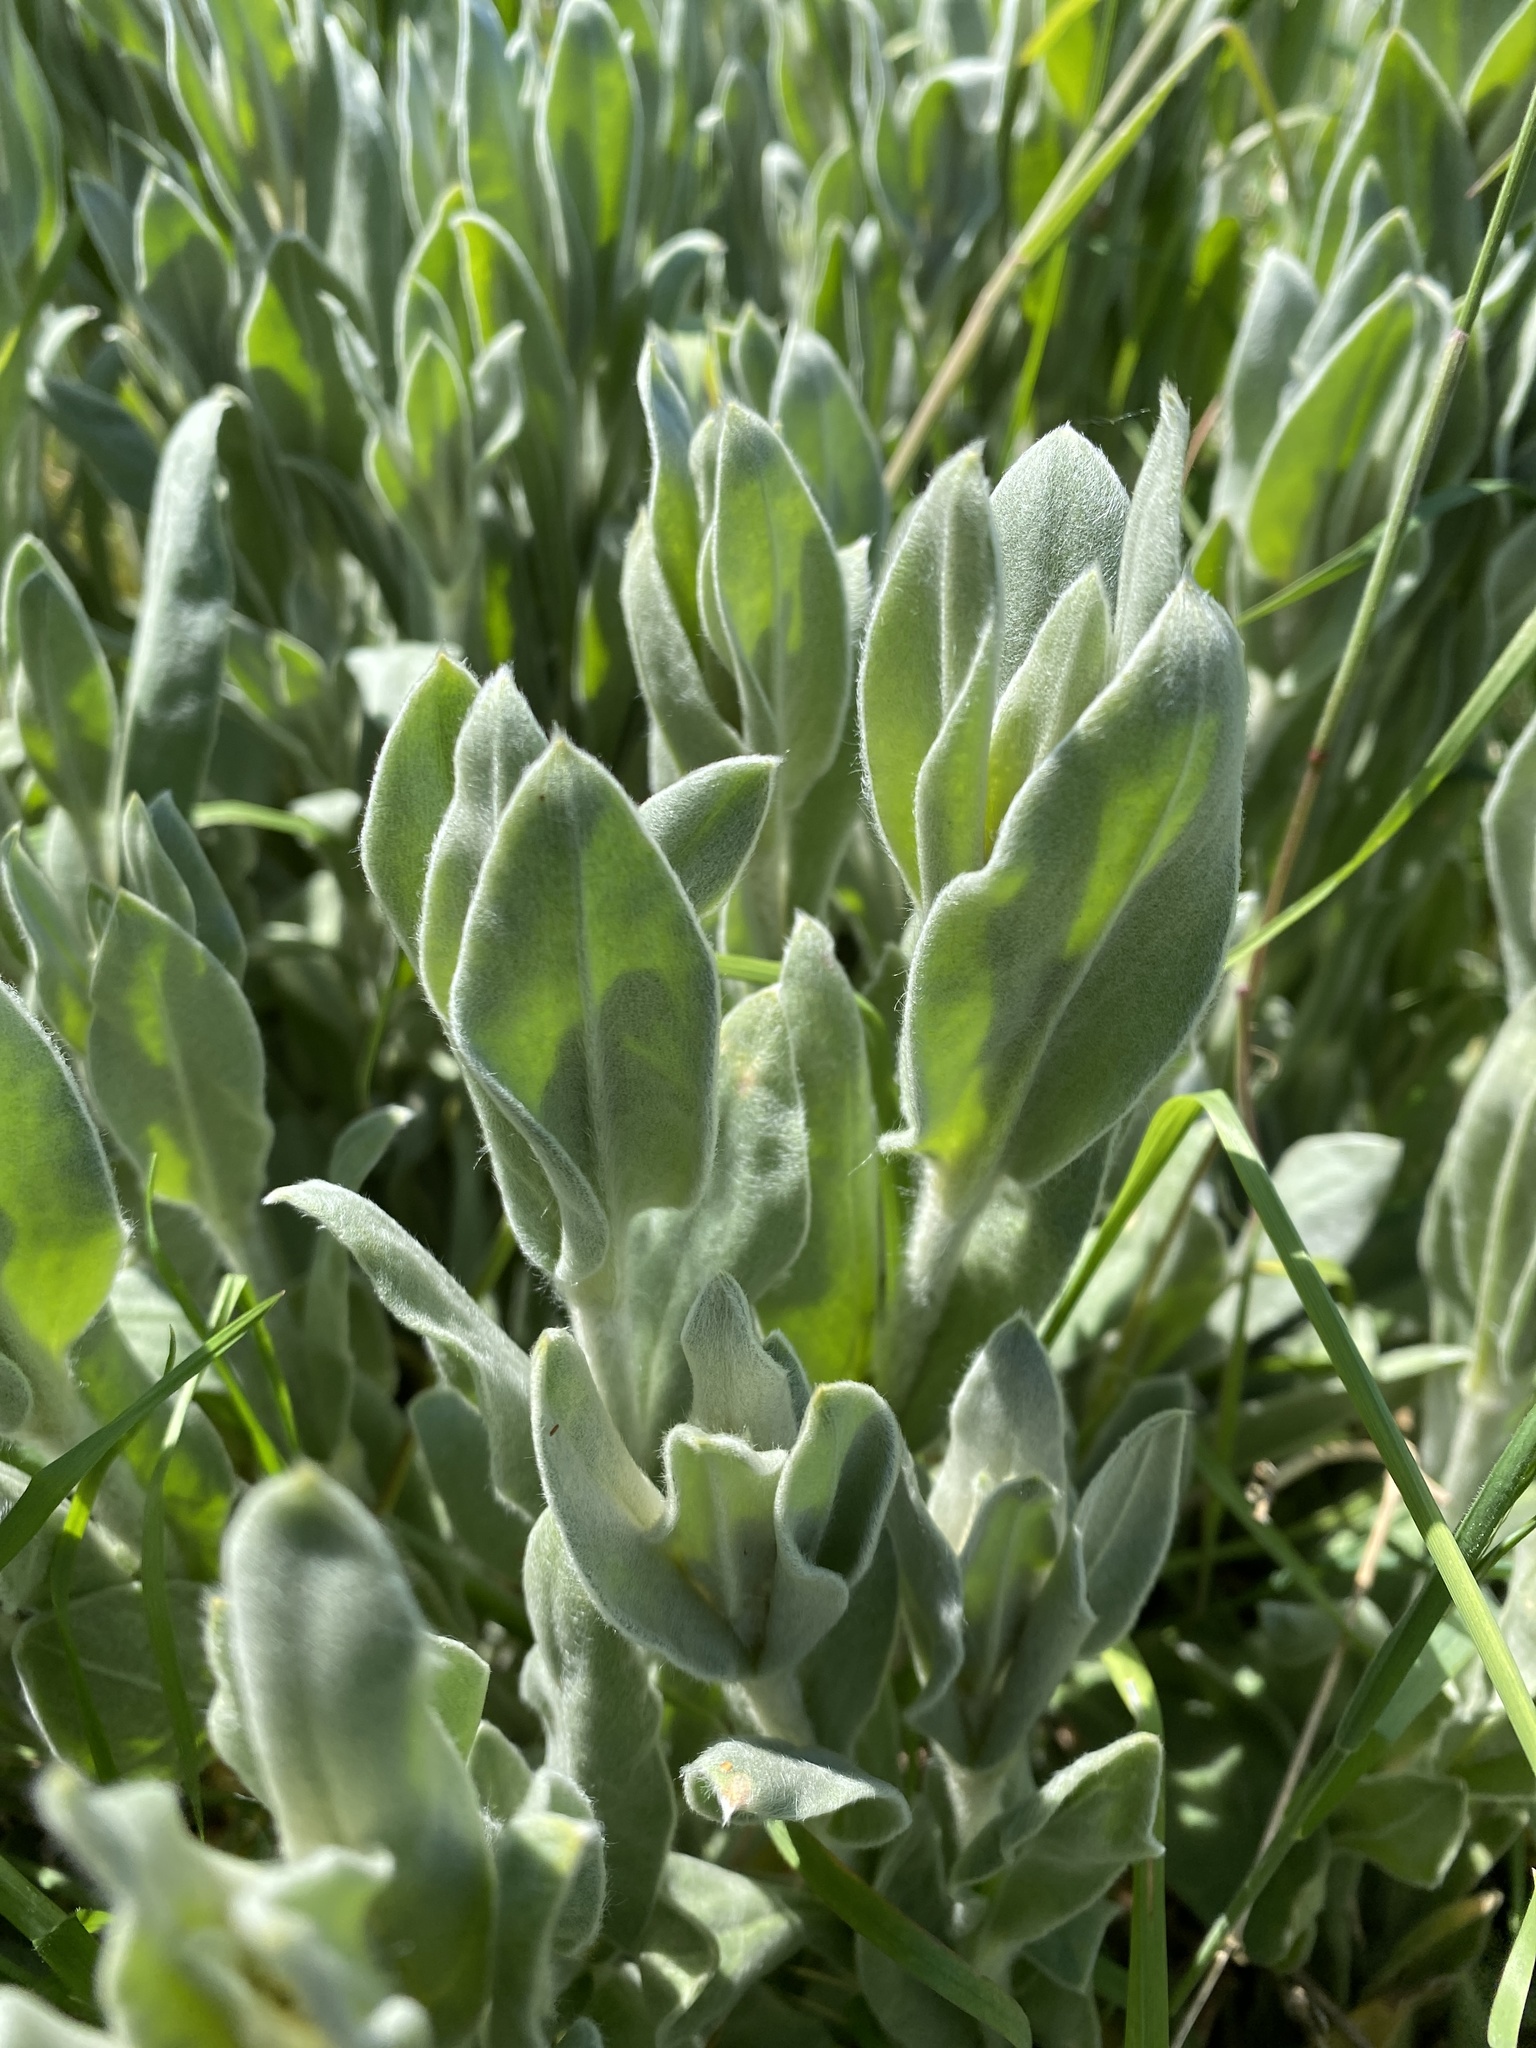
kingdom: Plantae
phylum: Tracheophyta
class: Magnoliopsida
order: Caryophyllales
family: Caryophyllaceae
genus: Silene
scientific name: Silene coronaria
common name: Rose campion
